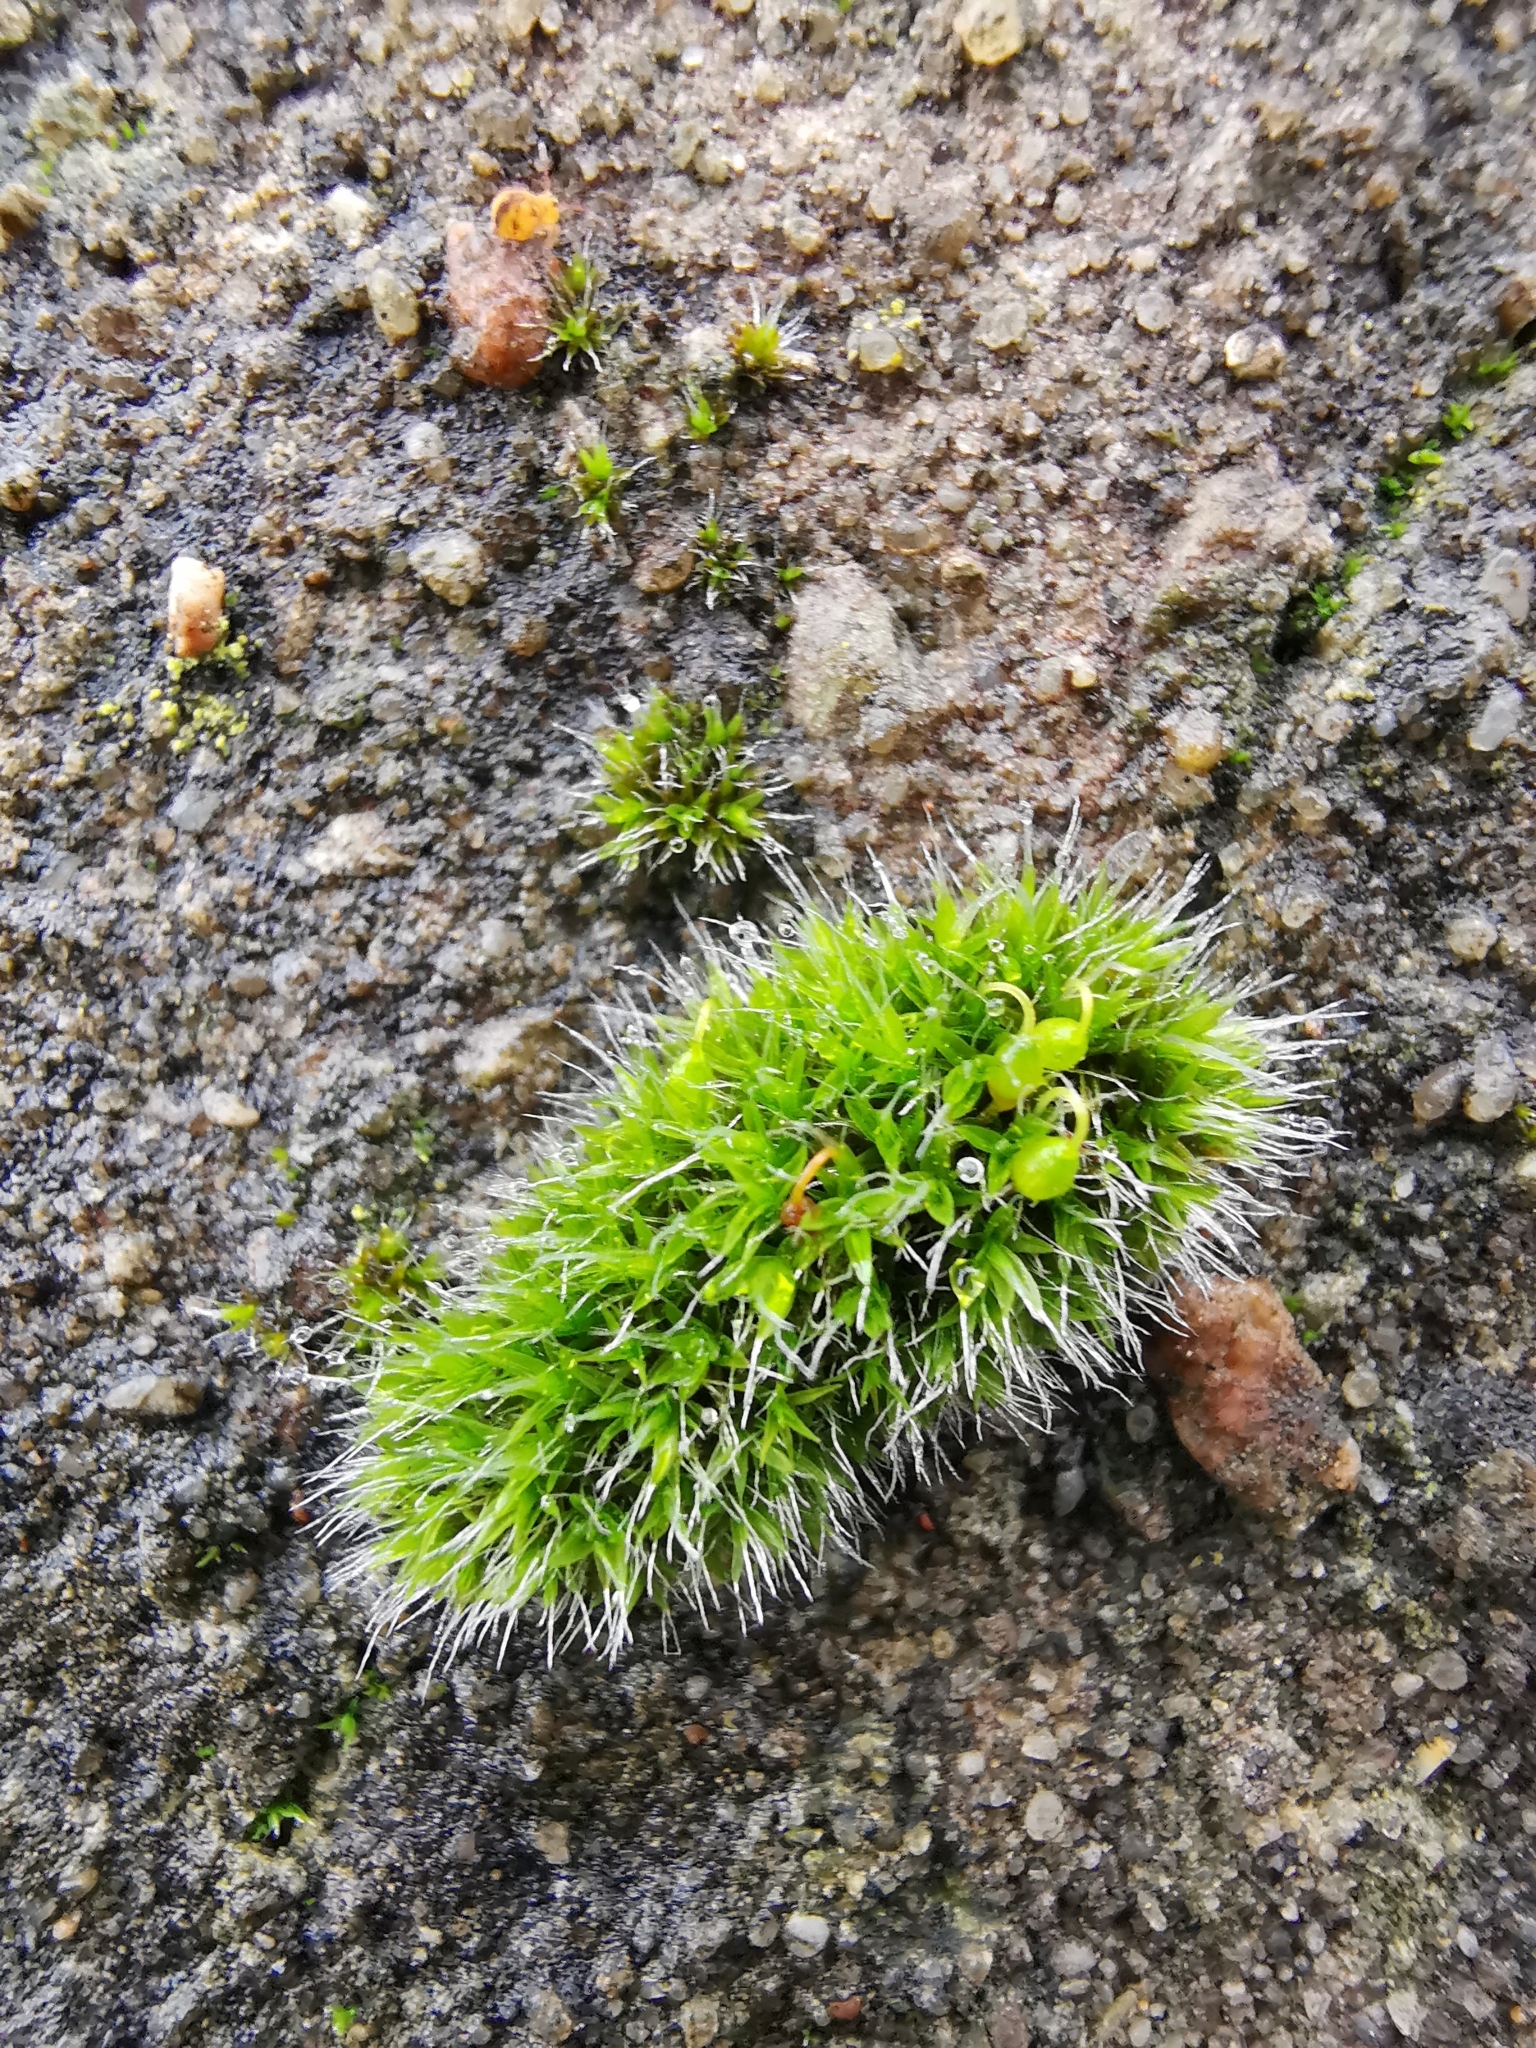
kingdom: Plantae
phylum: Bryophyta
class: Bryopsida
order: Grimmiales
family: Grimmiaceae
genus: Grimmia
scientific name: Grimmia pulvinata
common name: Grey-cushioned grimmia
